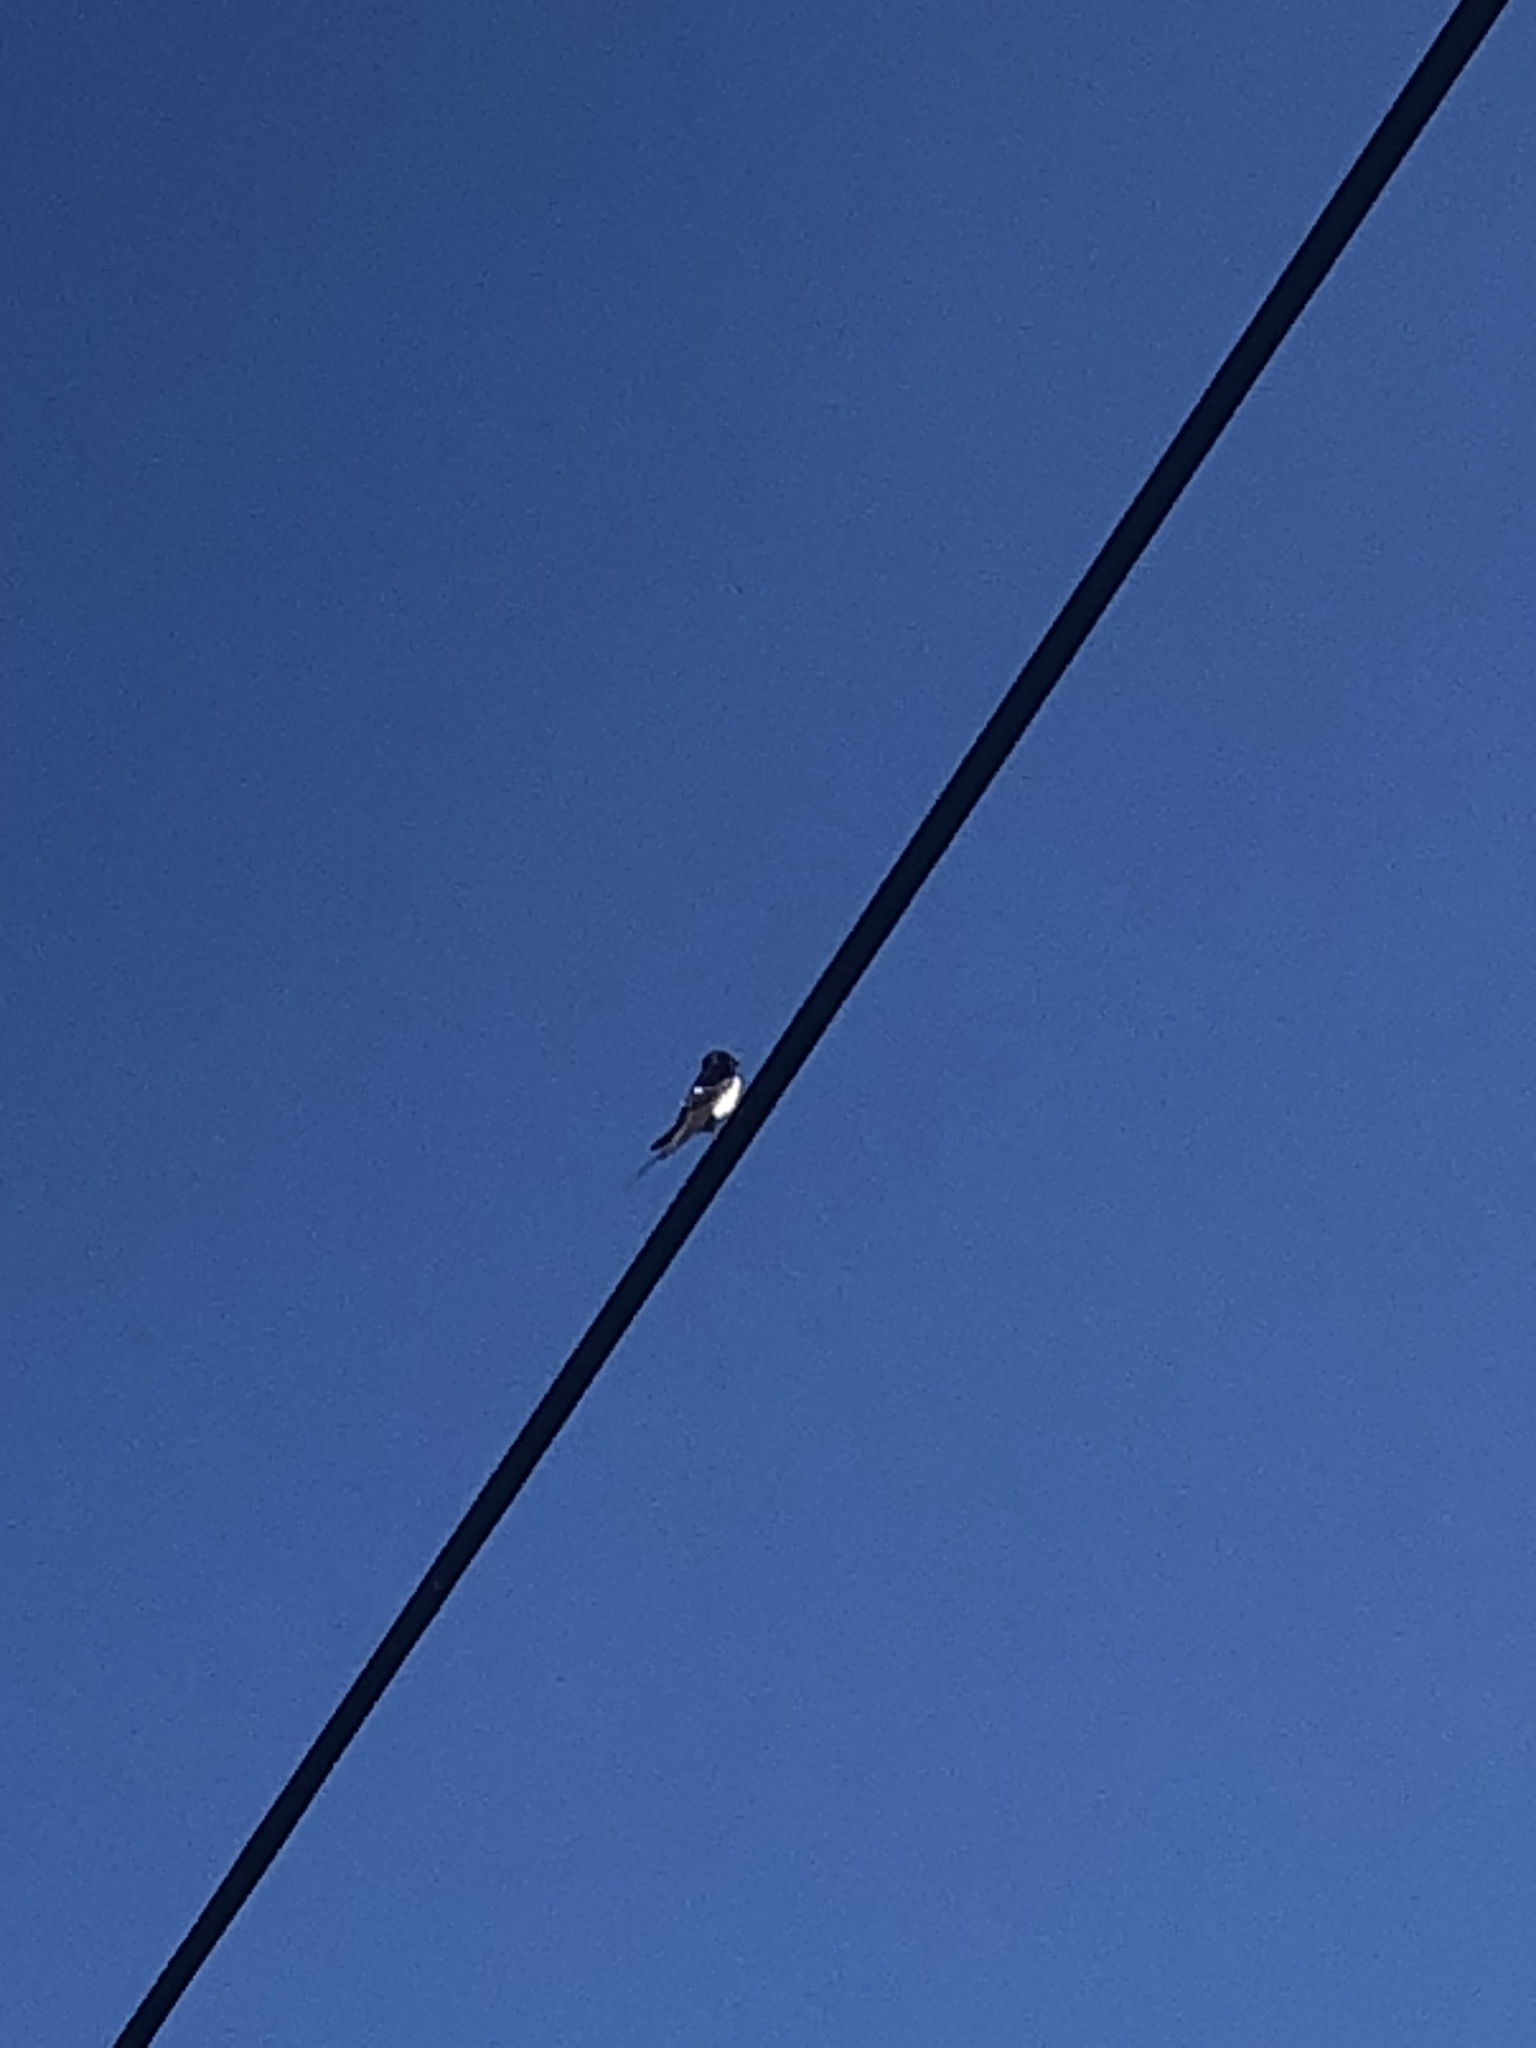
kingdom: Animalia
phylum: Chordata
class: Aves
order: Passeriformes
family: Hirundinidae
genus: Hirundo
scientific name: Hirundo rustica
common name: Barn swallow
